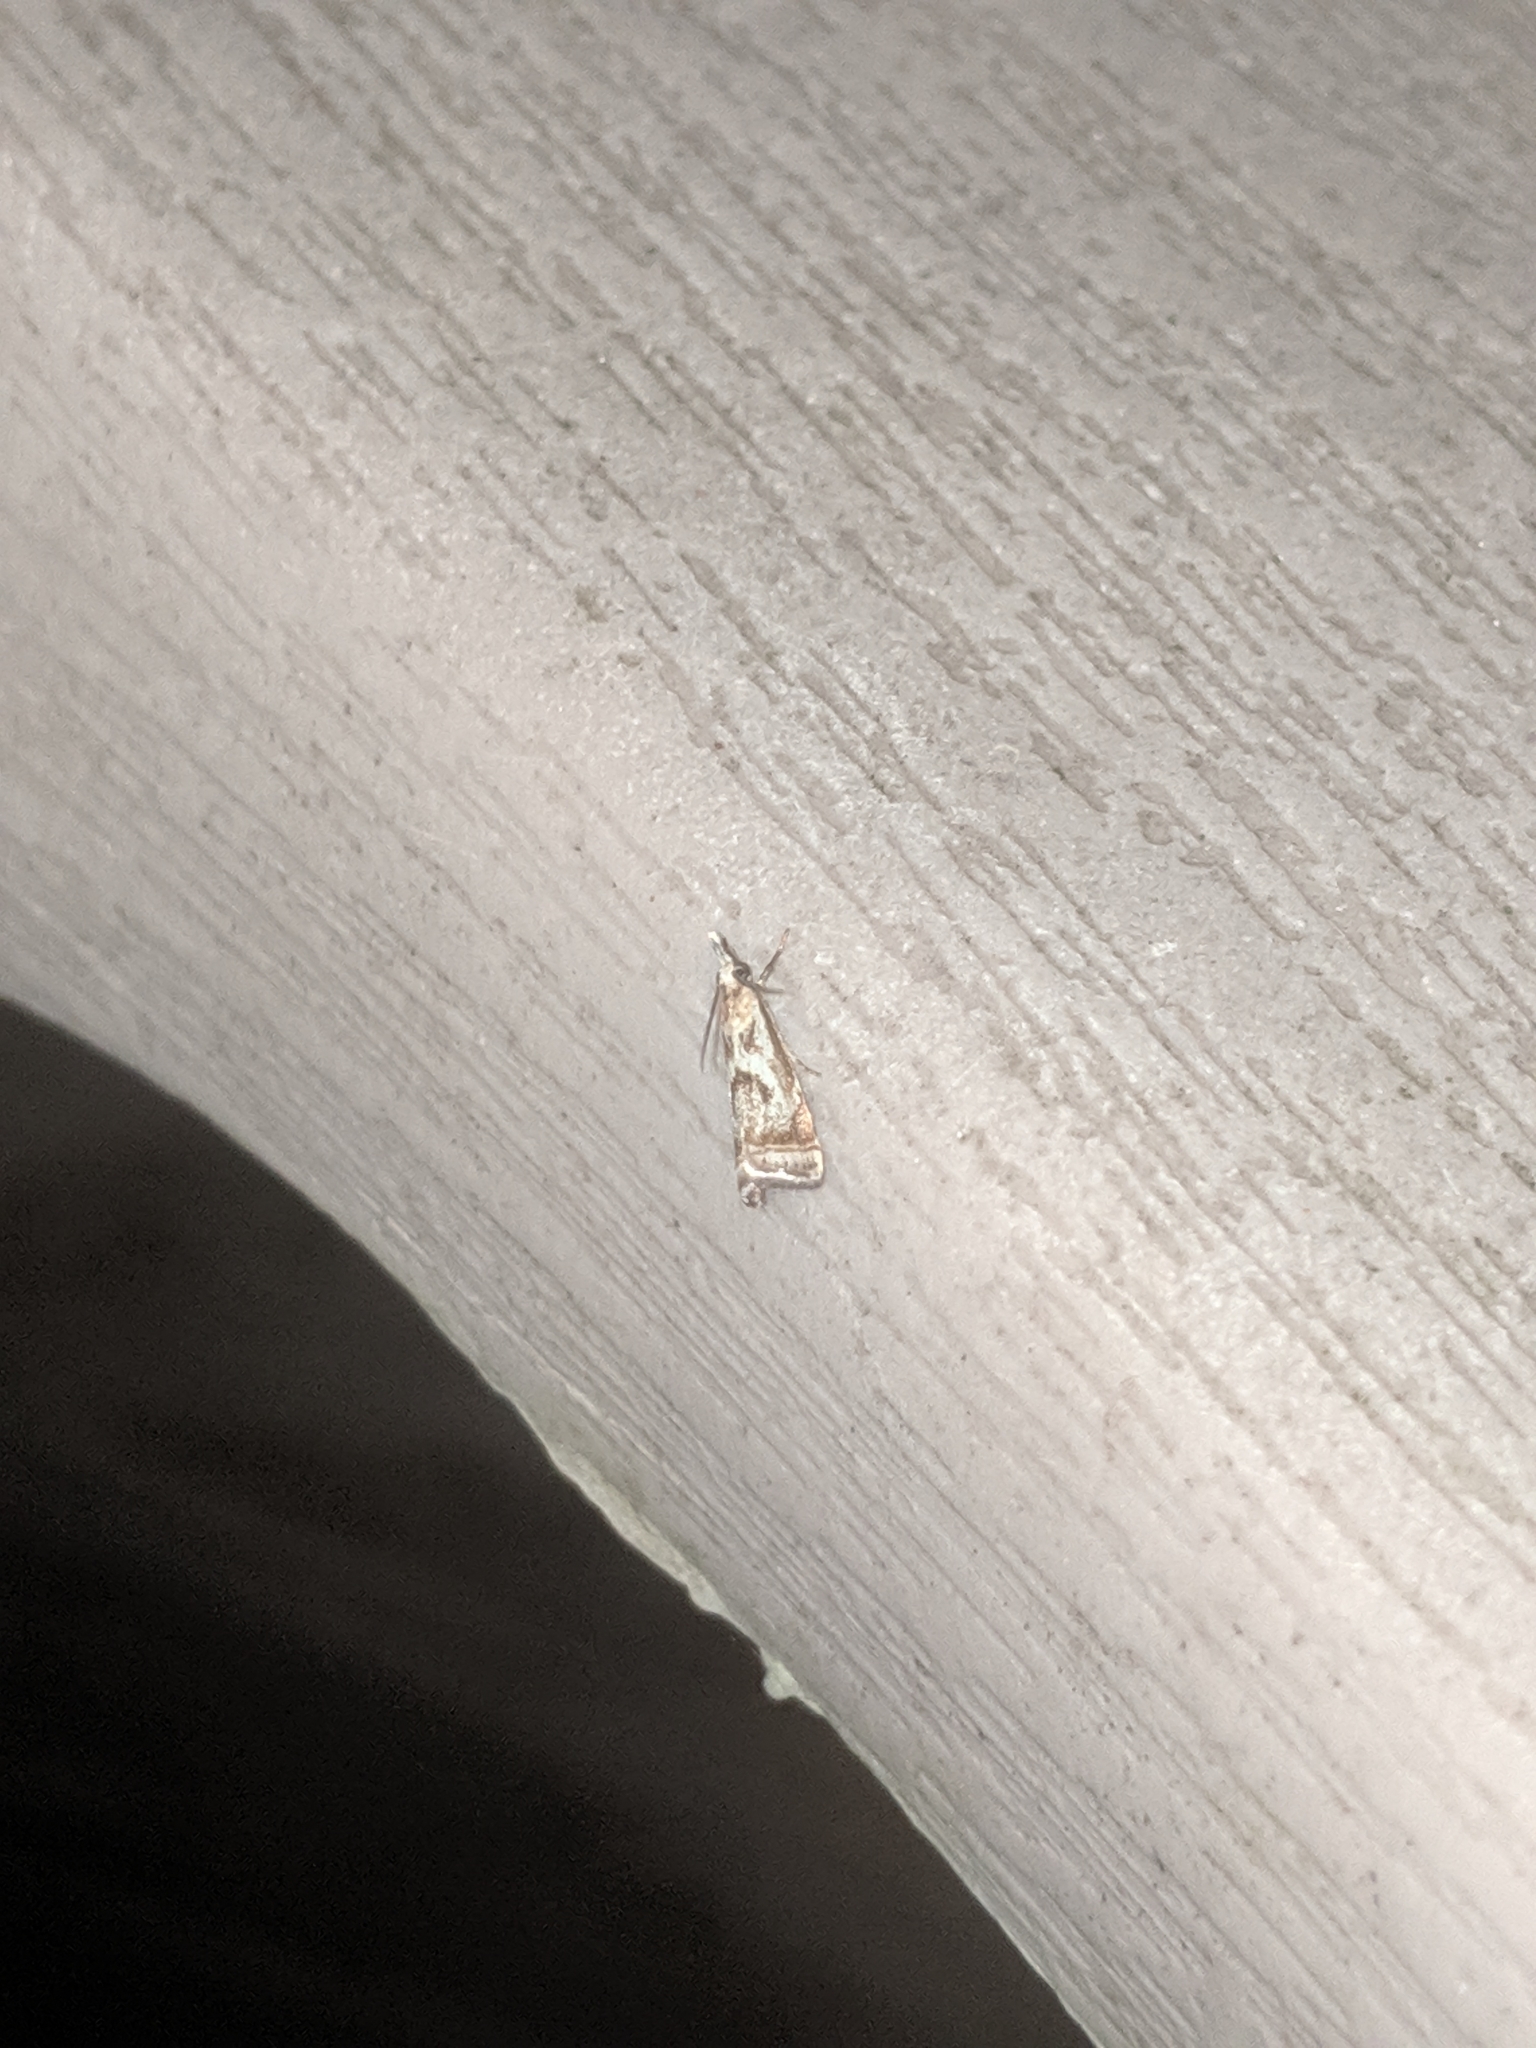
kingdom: Animalia
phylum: Arthropoda
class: Insecta
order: Lepidoptera
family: Crambidae
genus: Microcrambus
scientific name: Microcrambus elegans
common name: Elegant grass-veneer
